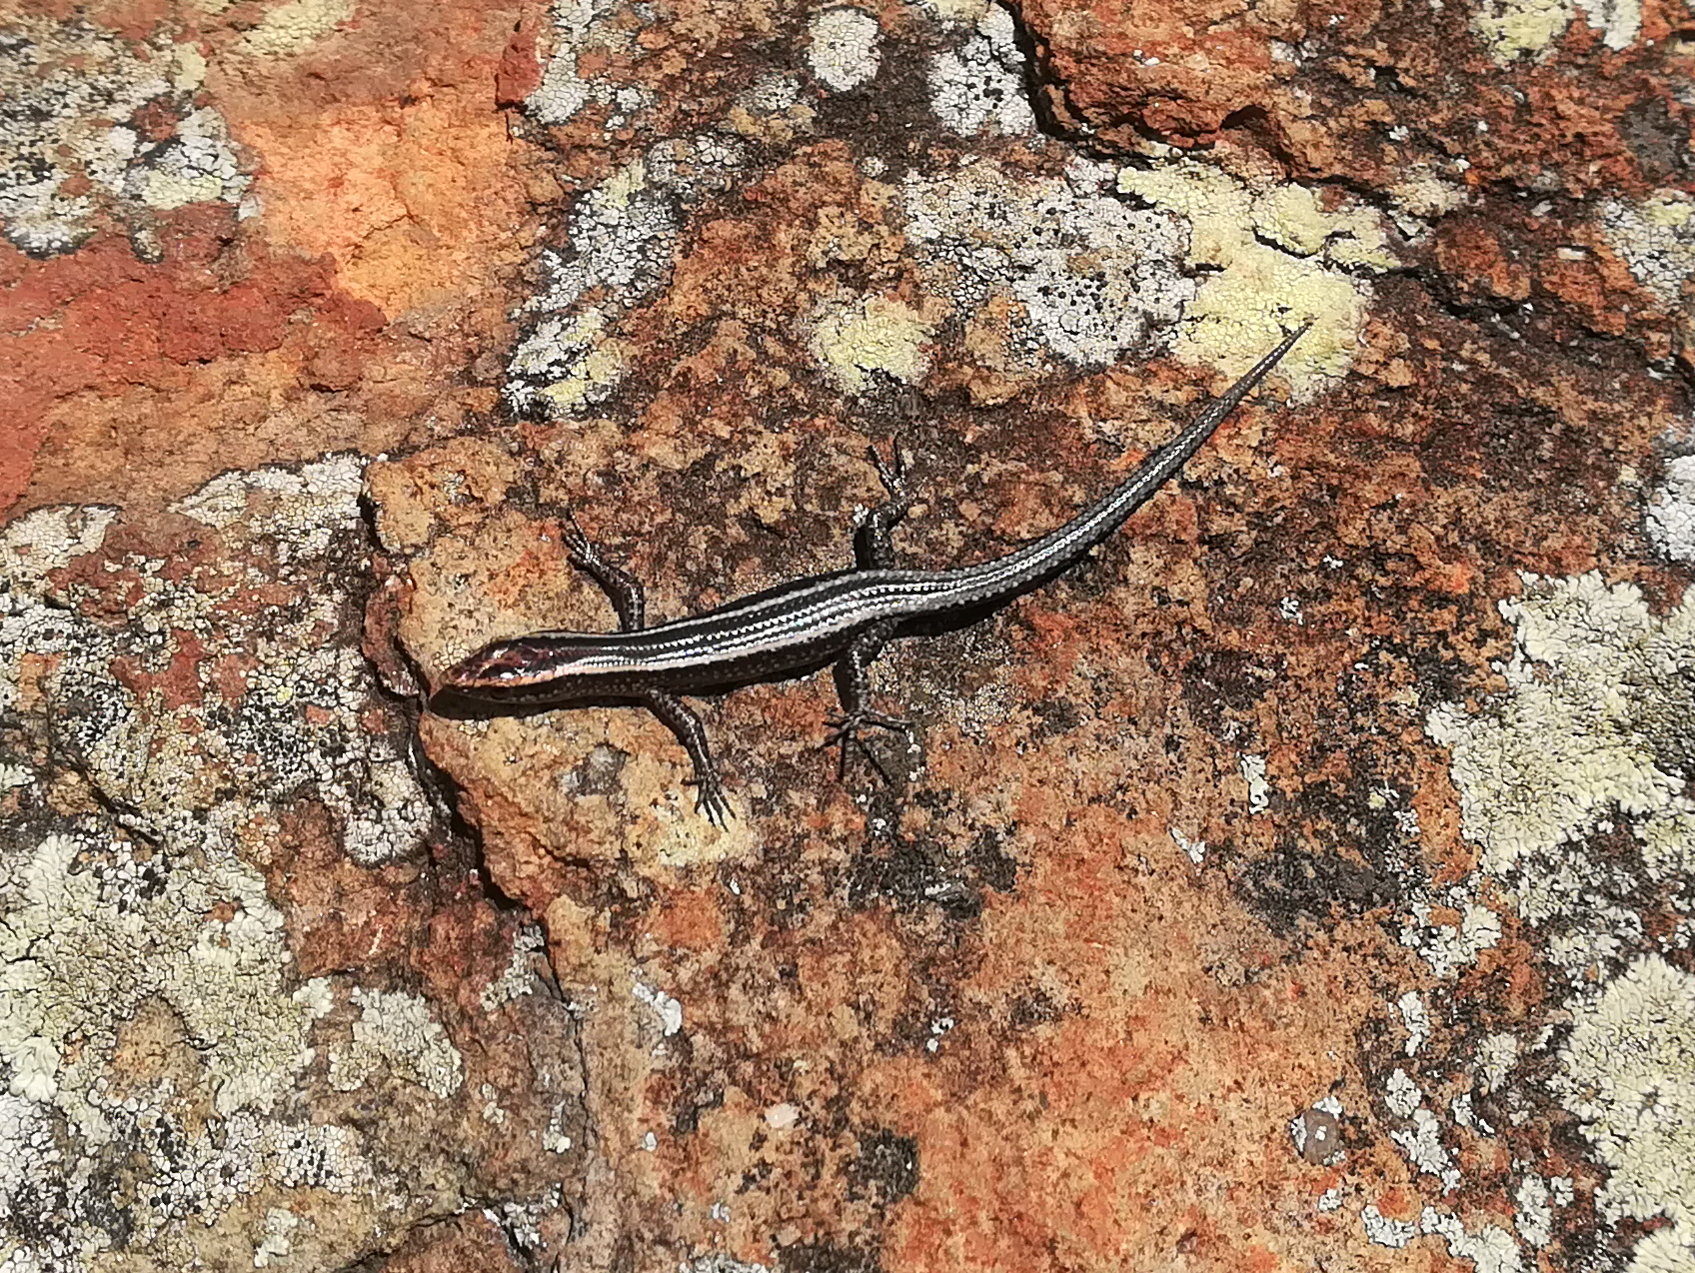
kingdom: Animalia
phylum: Chordata
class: Squamata
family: Scincidae
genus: Cryptoblepharus
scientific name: Cryptoblepharus pulcher
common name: Elegant snake-eyed skink
